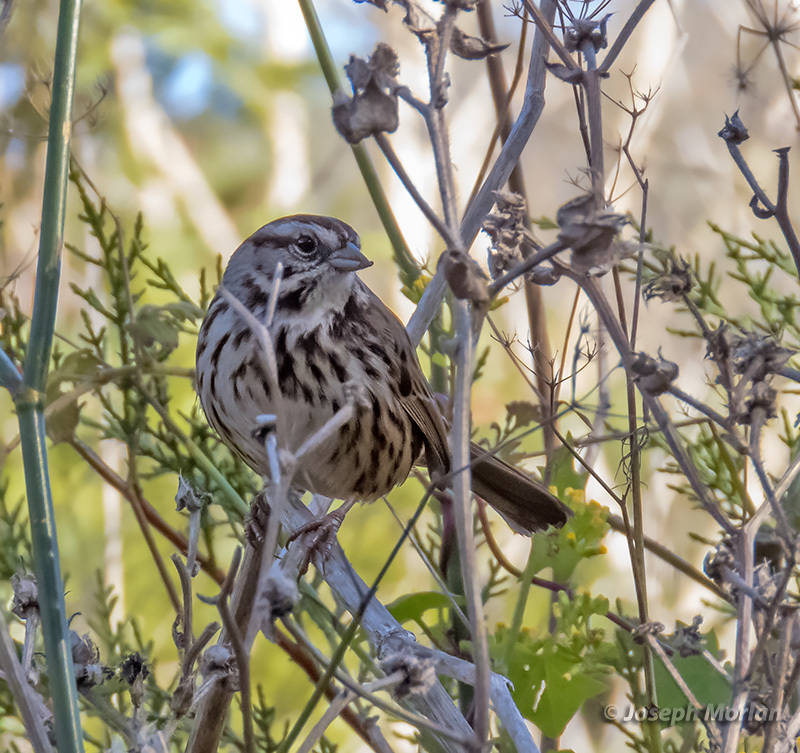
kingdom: Animalia
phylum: Chordata
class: Aves
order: Passeriformes
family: Passerellidae
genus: Melospiza
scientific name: Melospiza melodia
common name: Song sparrow
